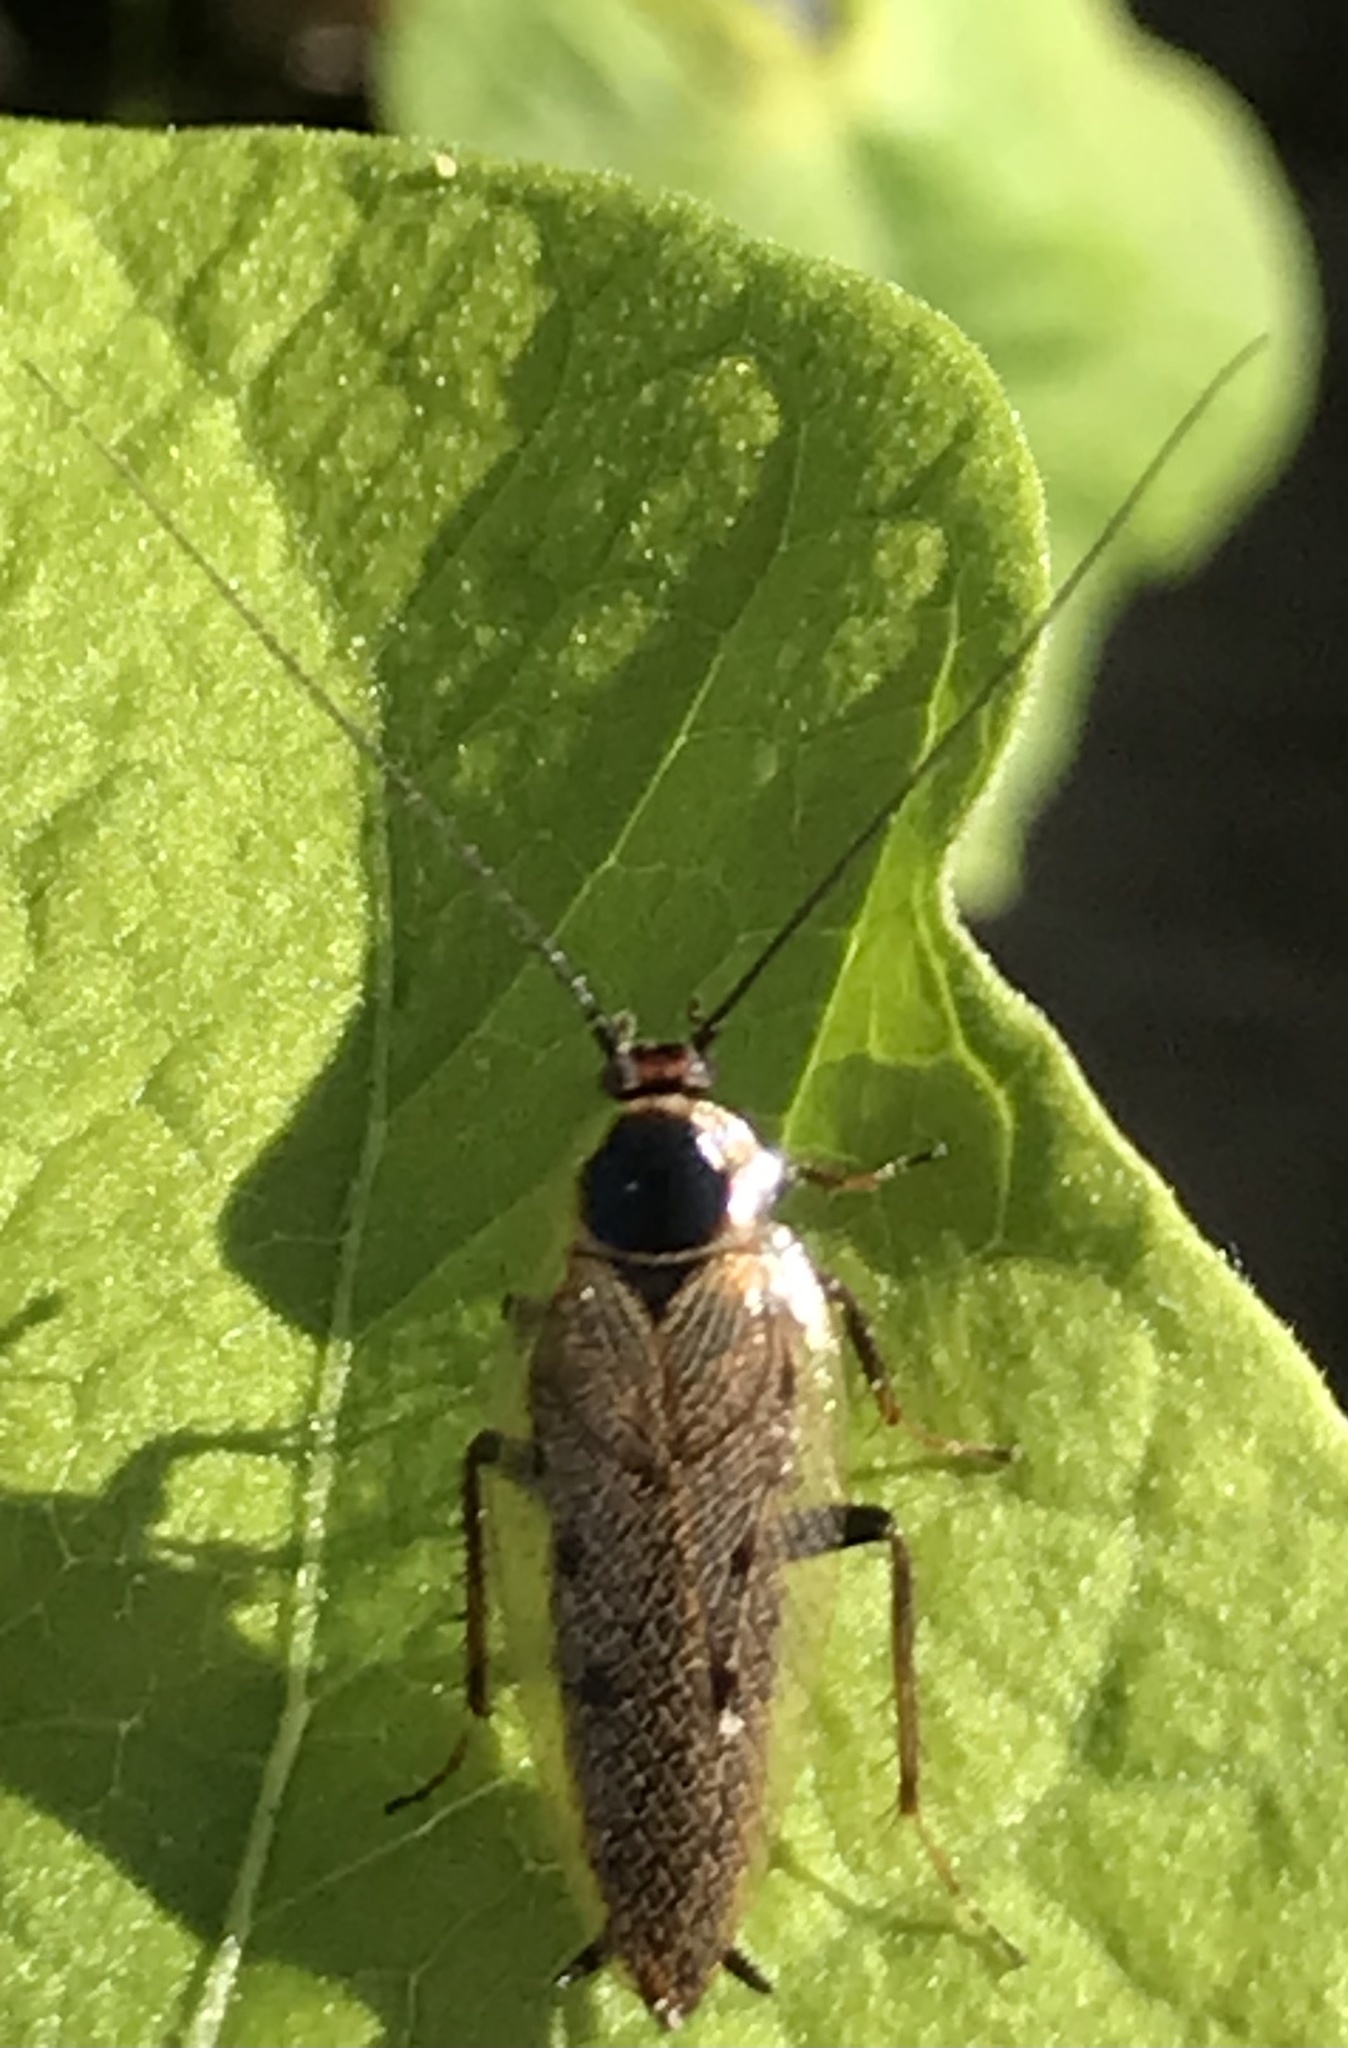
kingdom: Animalia
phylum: Arthropoda
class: Insecta
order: Blattodea
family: Ectobiidae
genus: Ectobius
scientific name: Ectobius lapponicus
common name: Dusky cockroach
